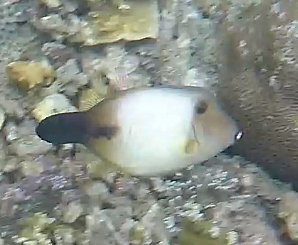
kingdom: Animalia
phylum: Chordata
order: Tetraodontiformes
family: Monacanthidae
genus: Amanses
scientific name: Amanses scopas
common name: Broom filefish
